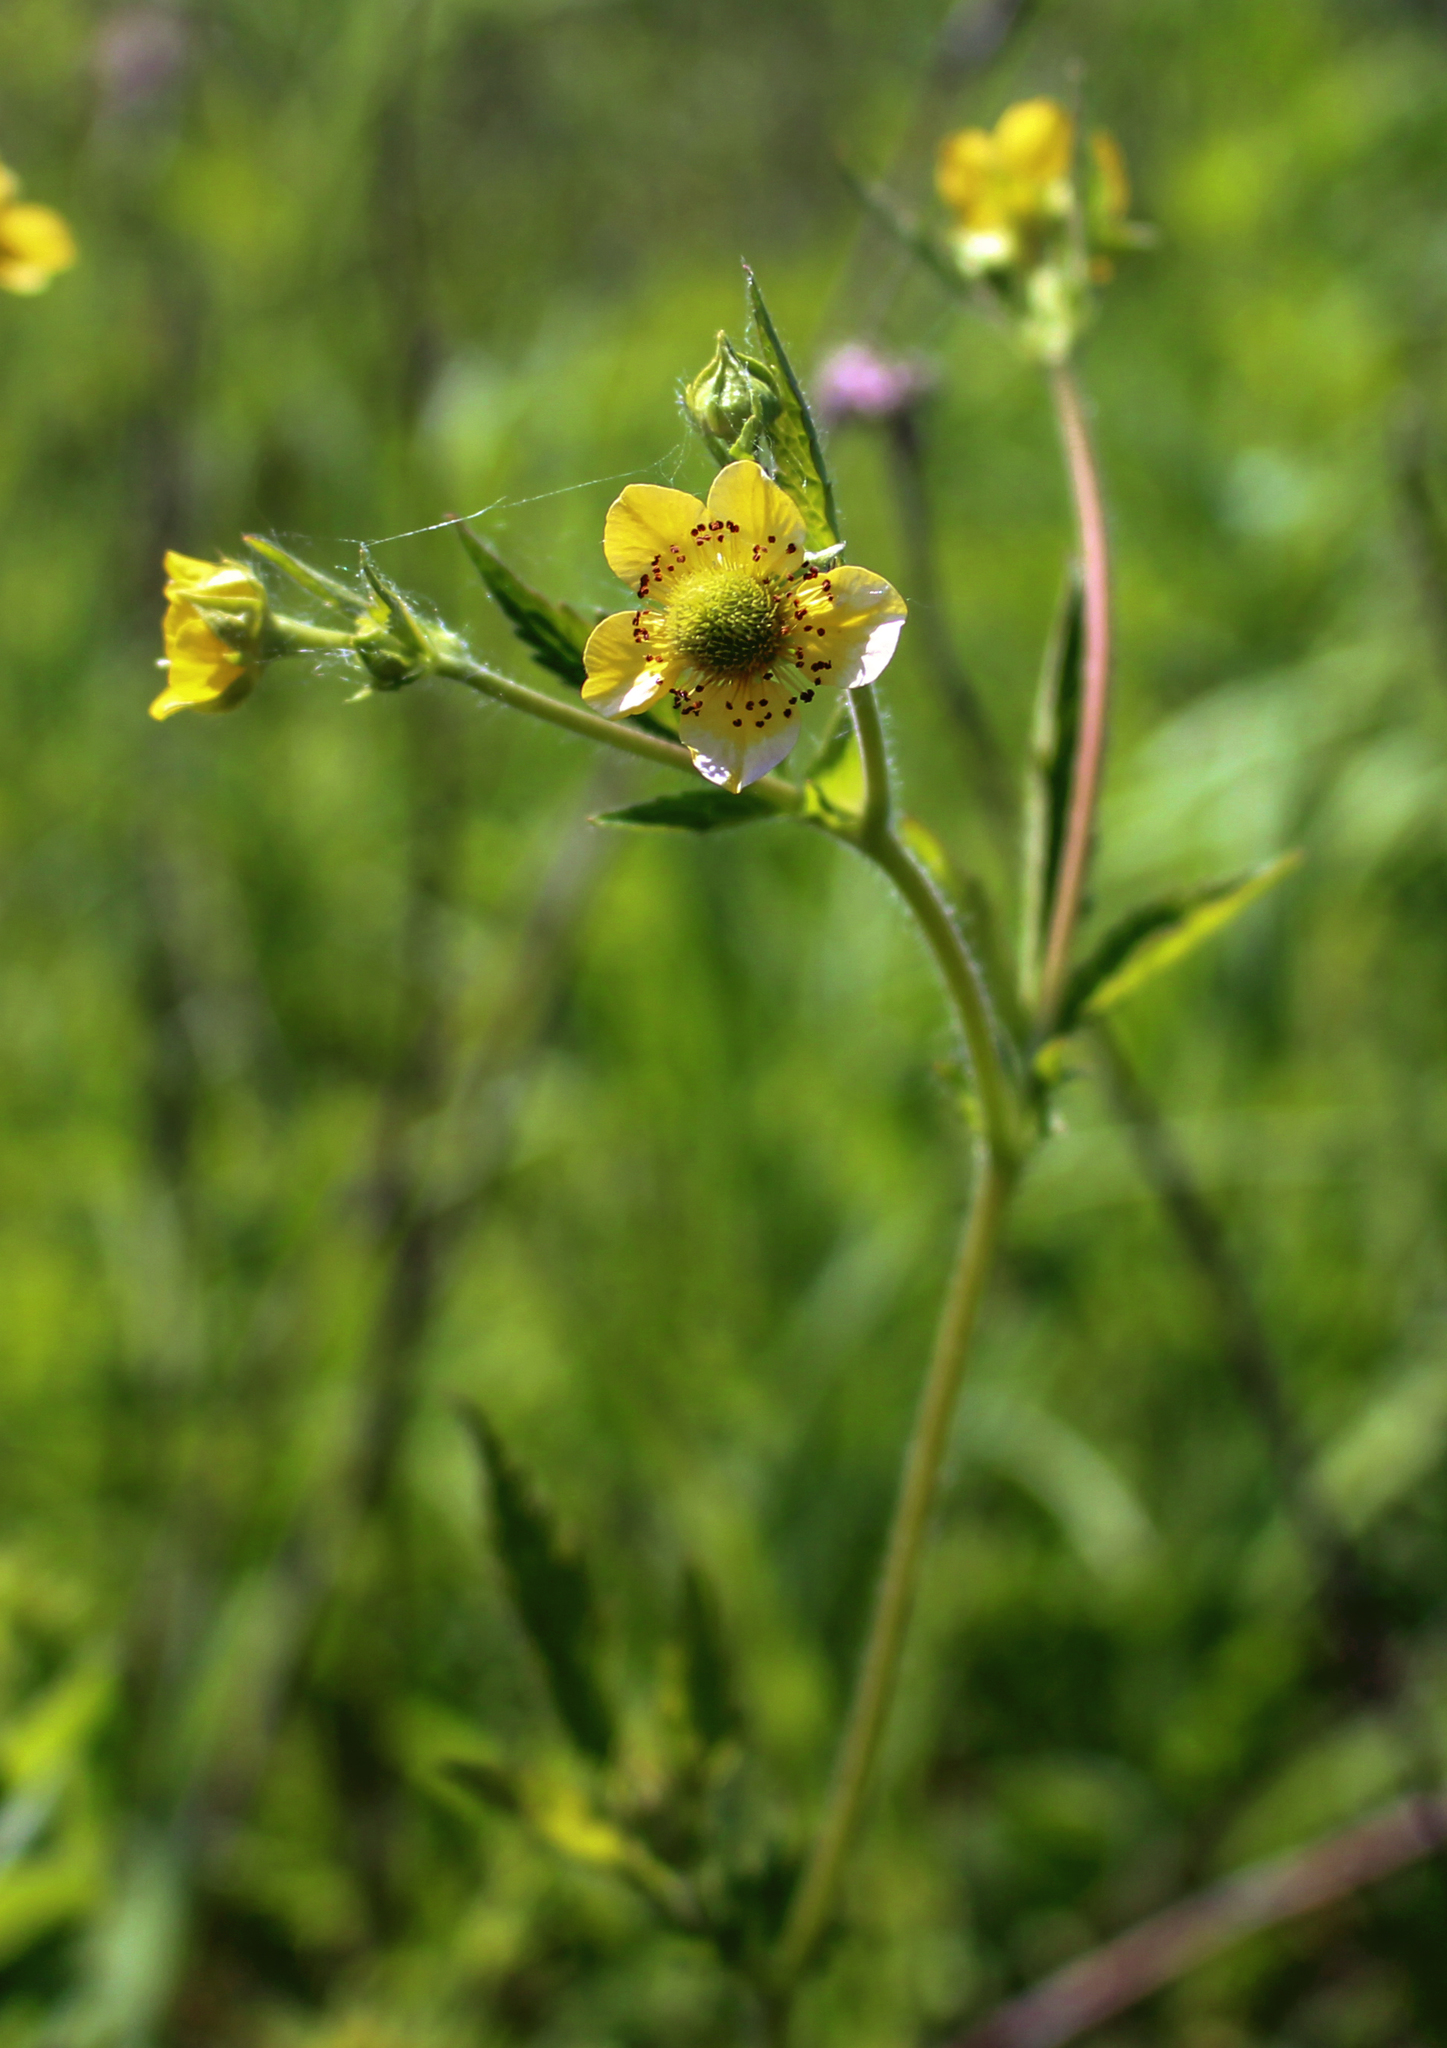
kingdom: Plantae
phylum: Tracheophyta
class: Magnoliopsida
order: Rosales
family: Rosaceae
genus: Geum
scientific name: Geum aleppicum
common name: Yellow avens
